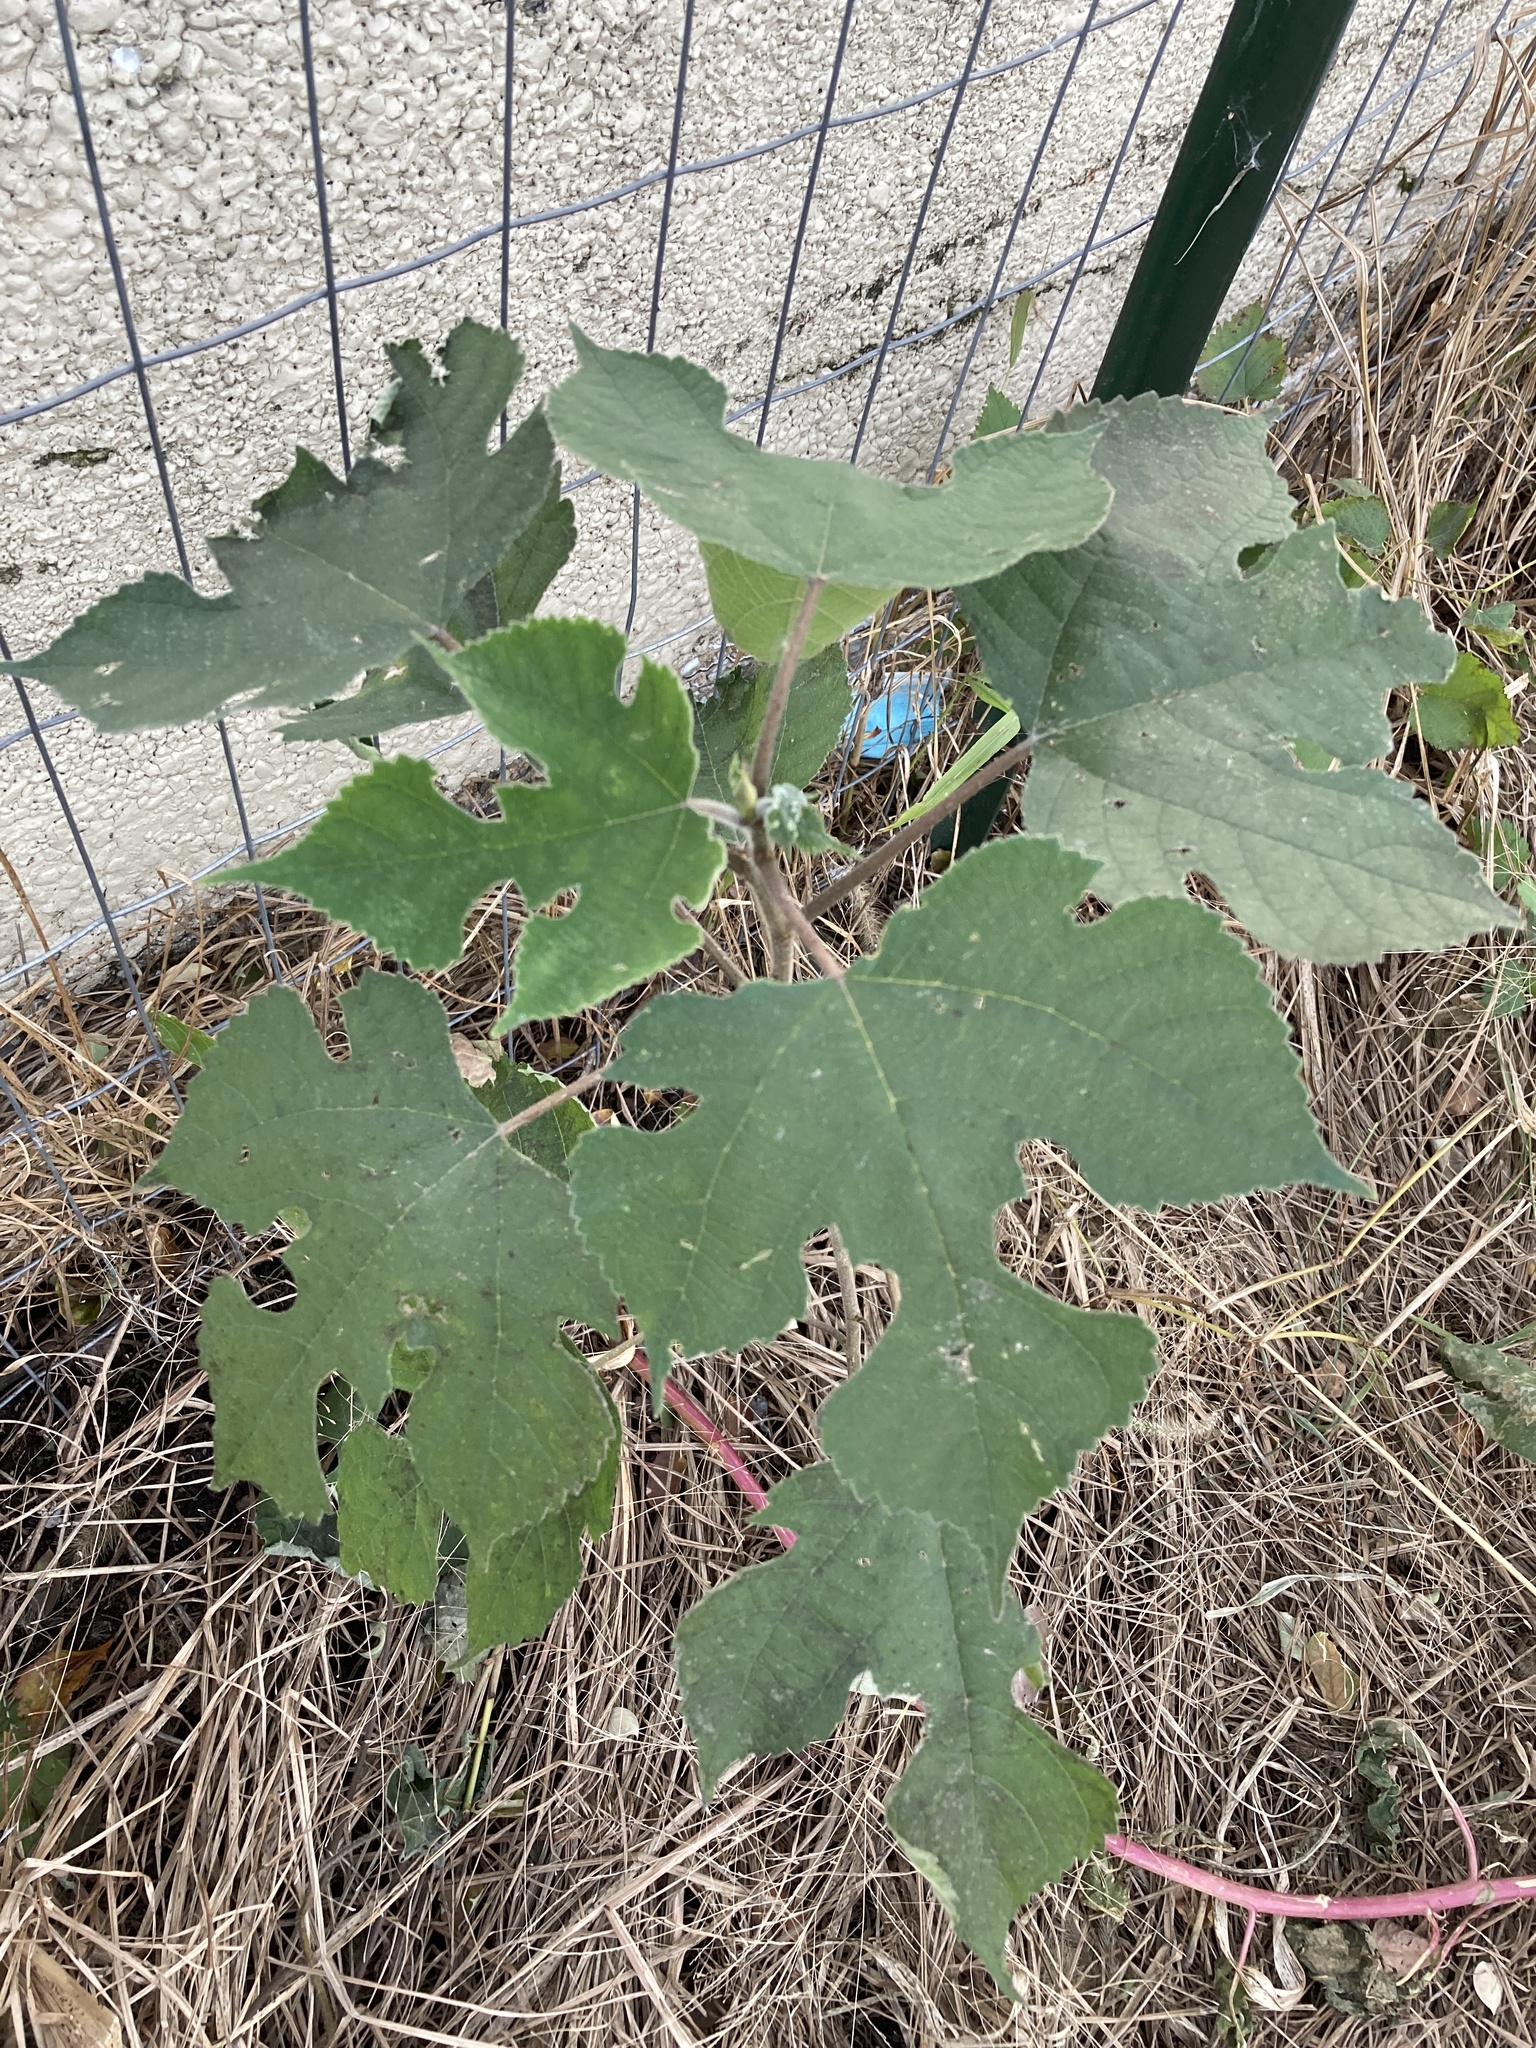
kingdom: Plantae
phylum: Tracheophyta
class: Magnoliopsida
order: Rosales
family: Moraceae
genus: Broussonetia
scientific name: Broussonetia papyrifera
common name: Paper mulberry
